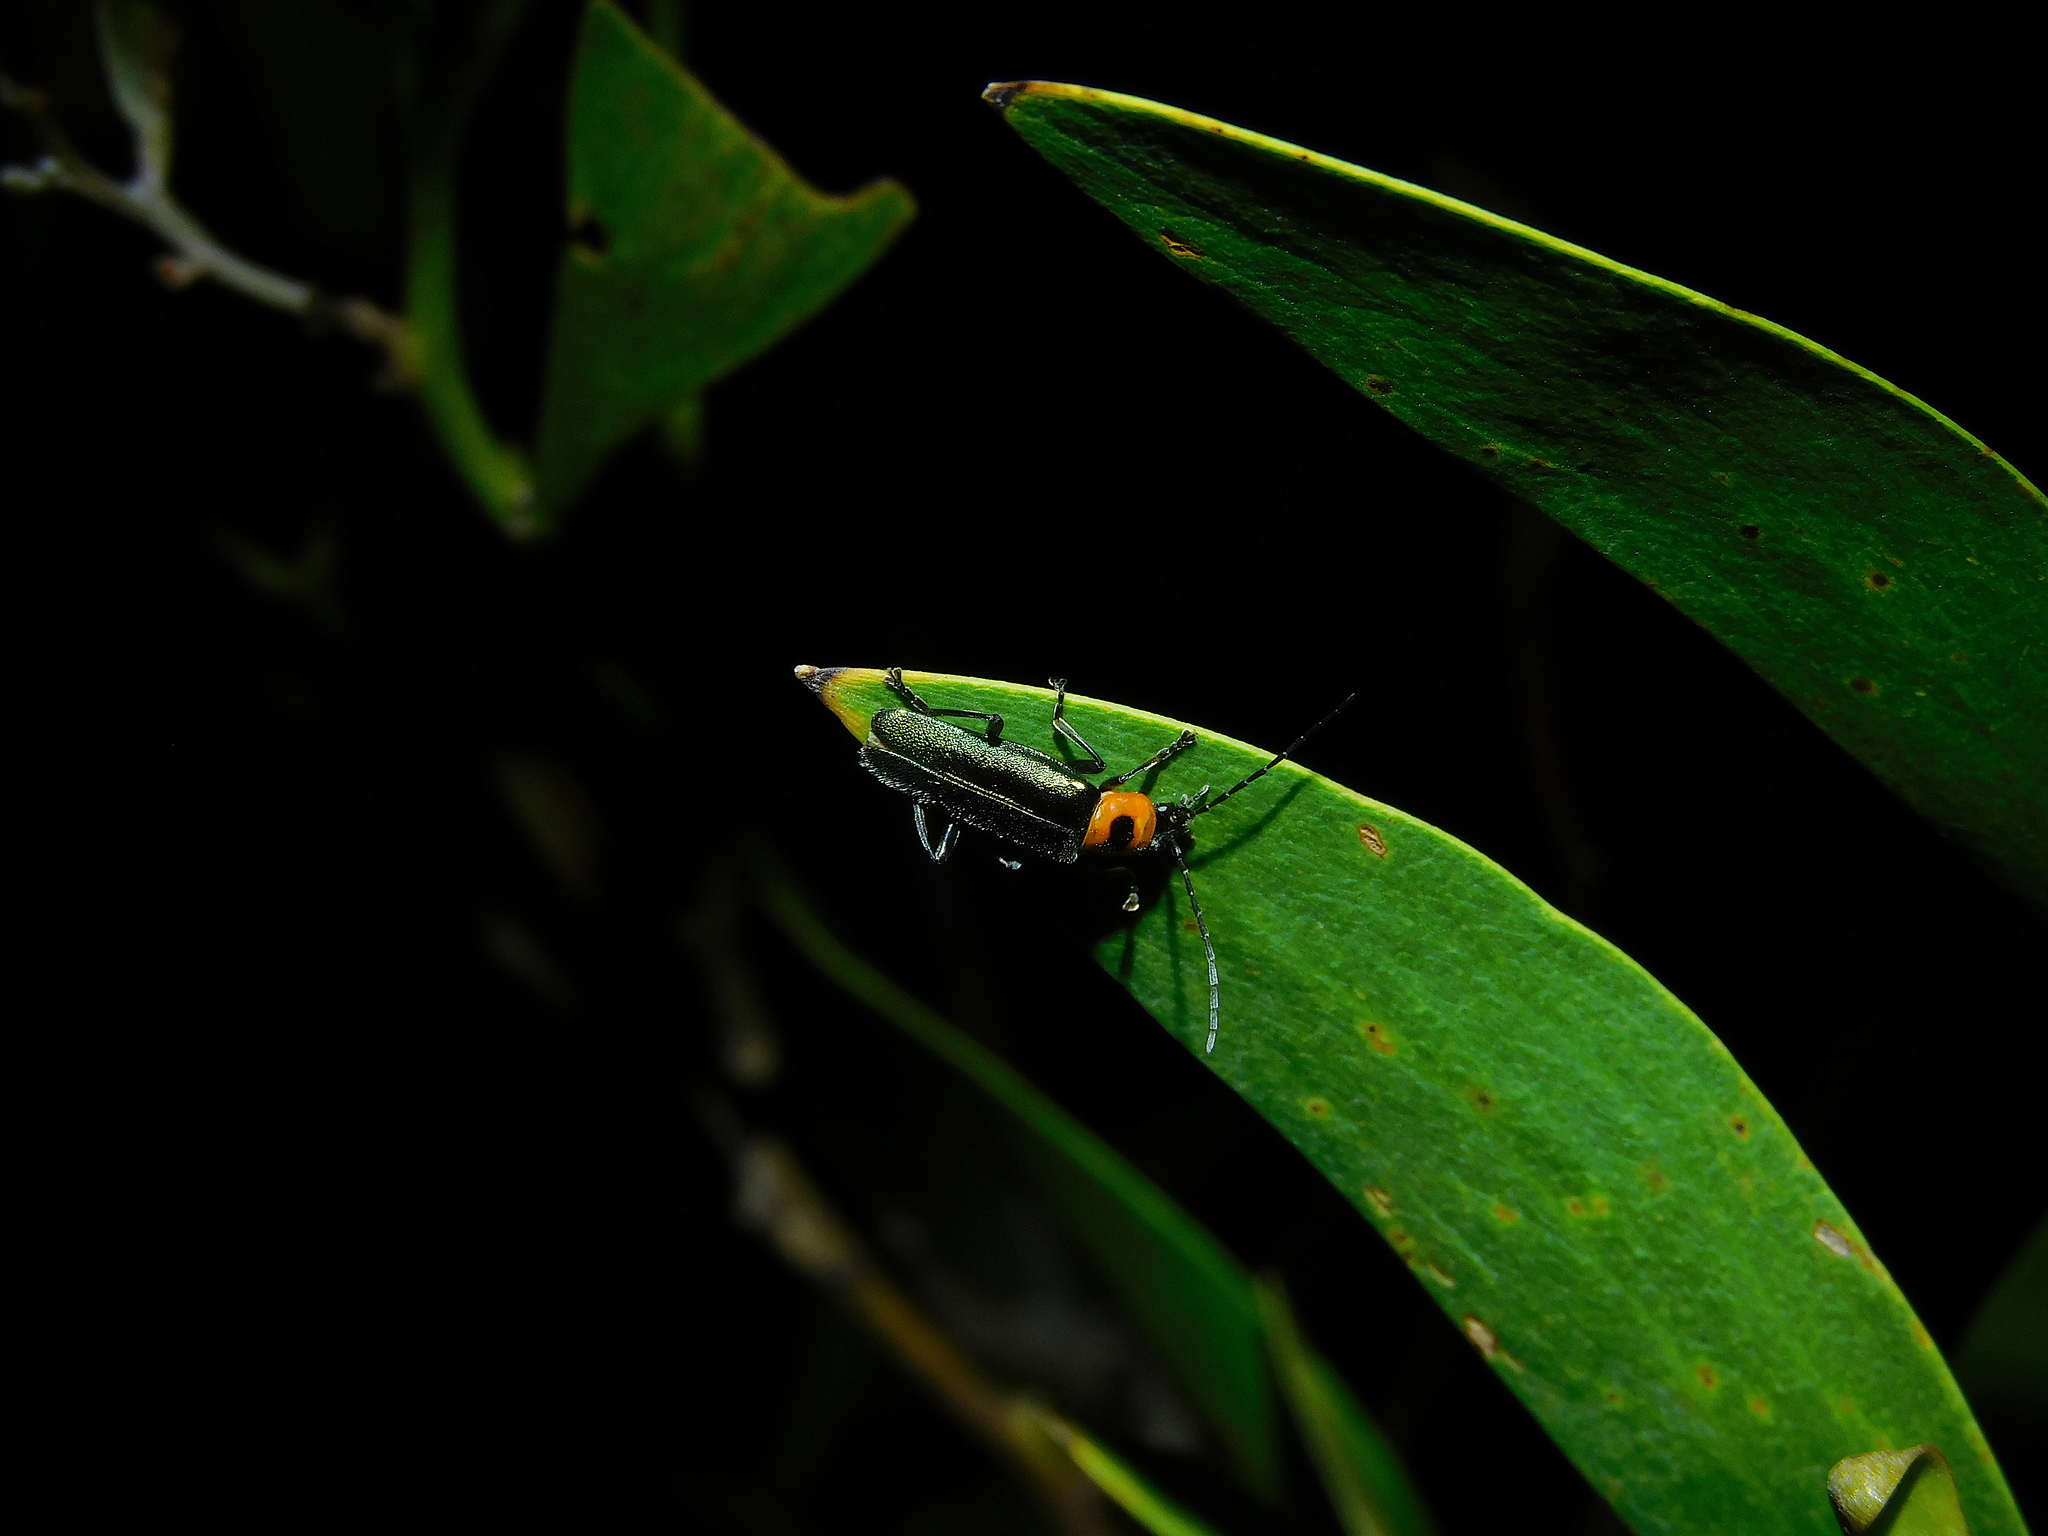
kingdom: Animalia
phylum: Arthropoda
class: Insecta
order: Coleoptera
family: Cantharidae
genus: Chauliognathus
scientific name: Chauliognathus
